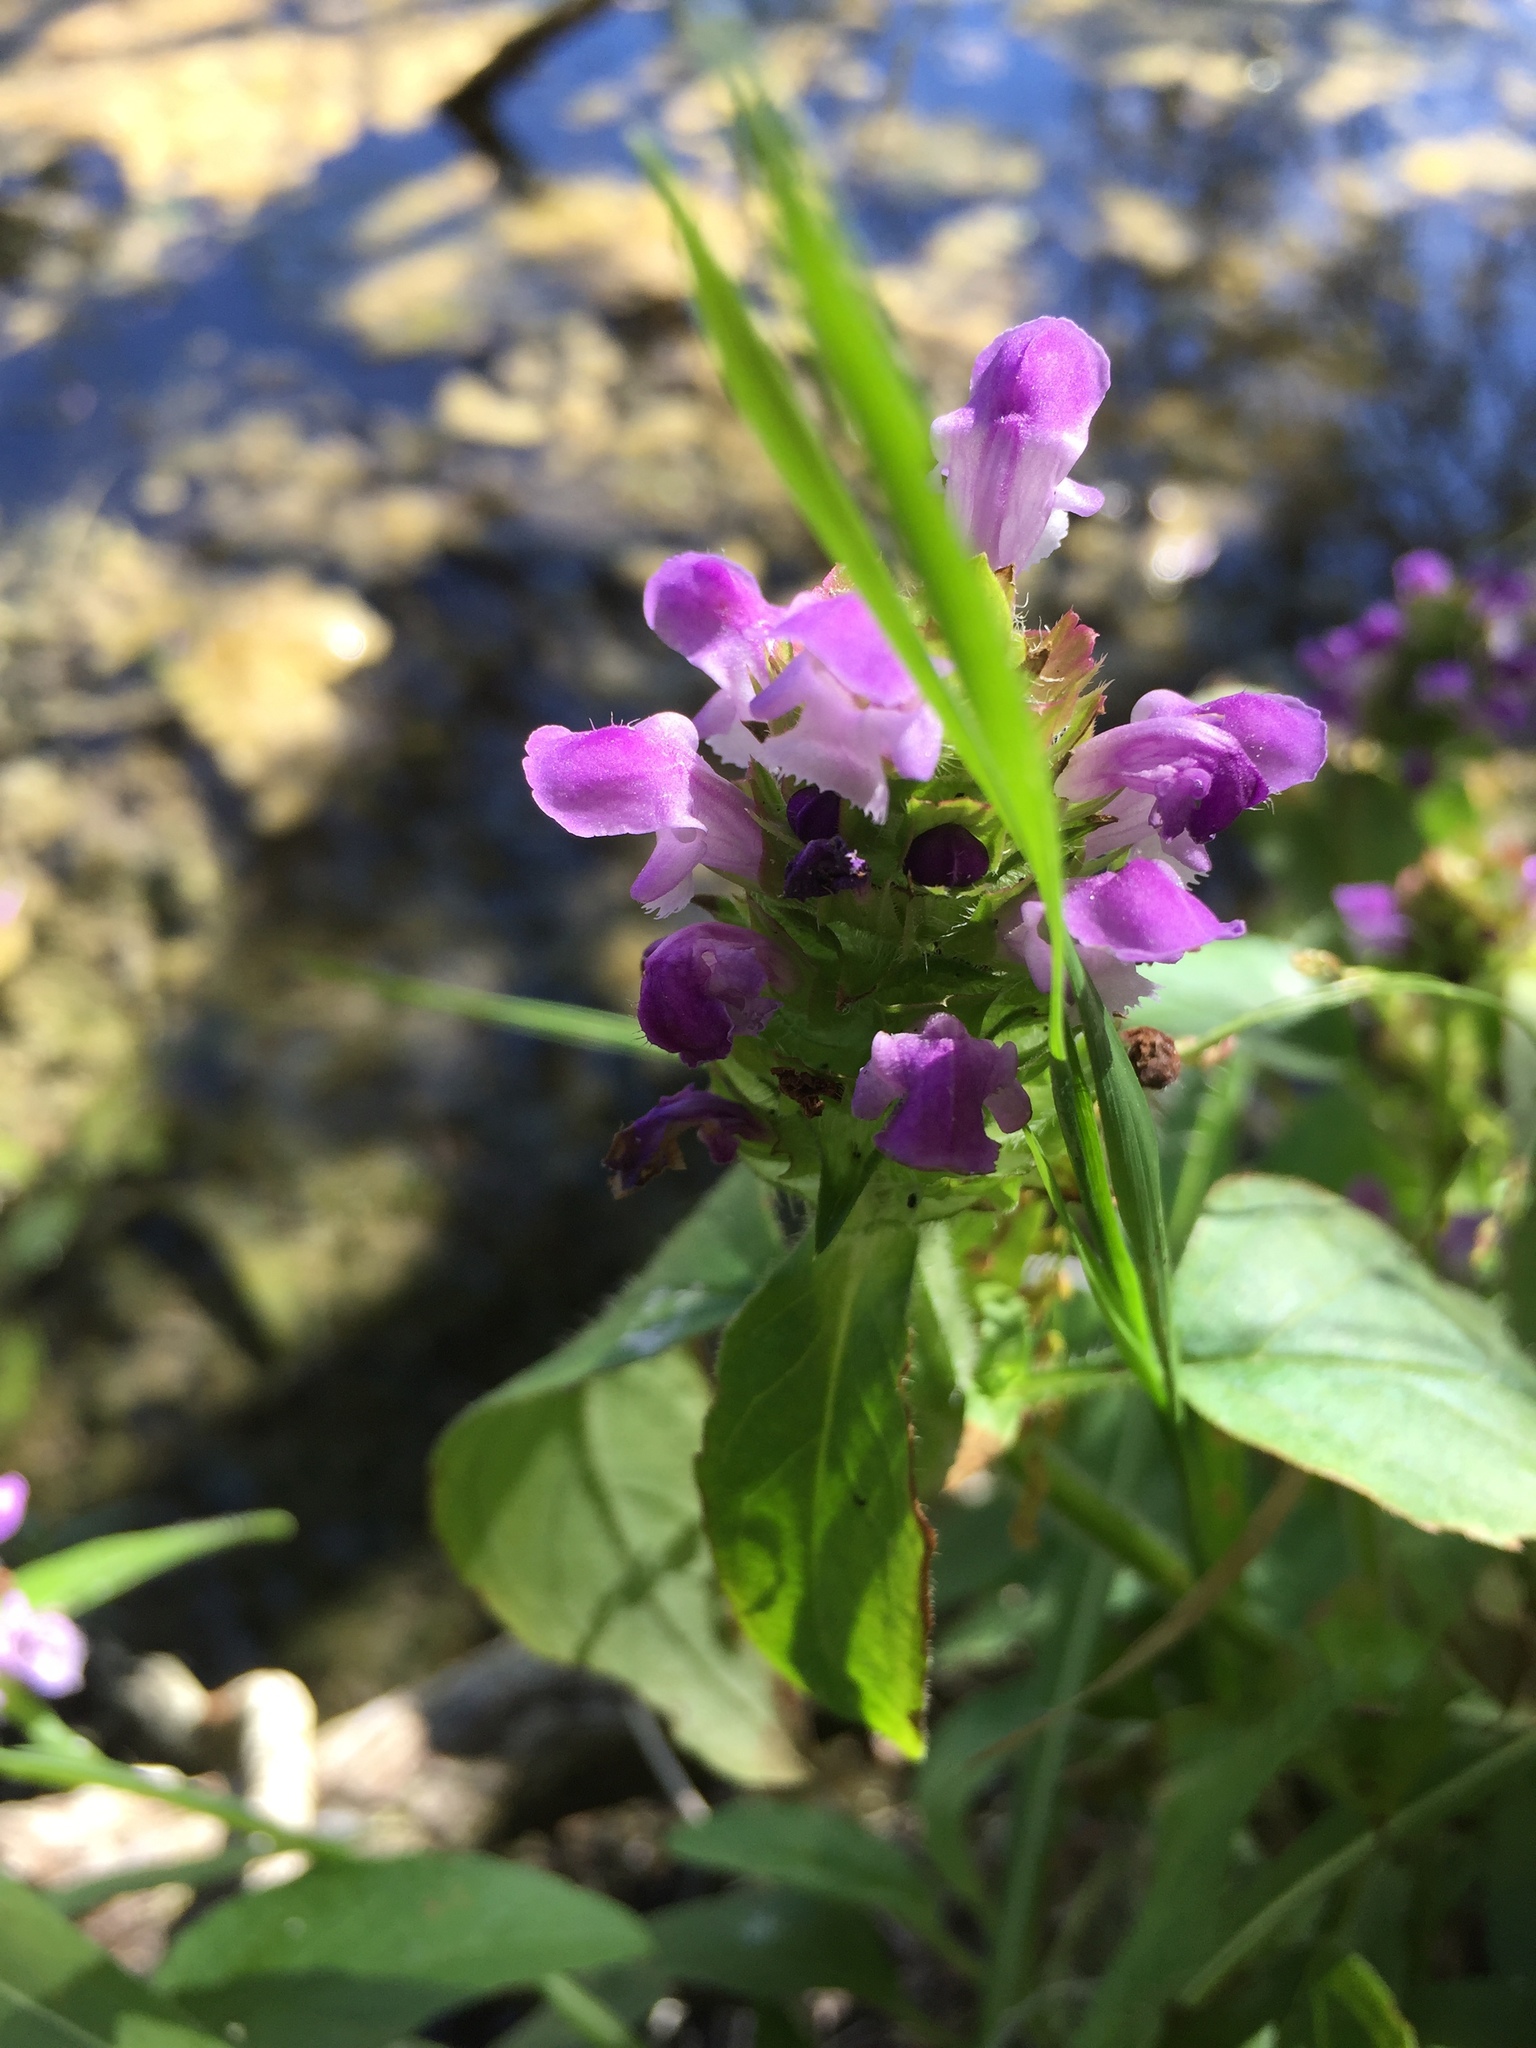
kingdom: Plantae
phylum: Tracheophyta
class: Magnoliopsida
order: Lamiales
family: Lamiaceae
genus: Prunella
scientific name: Prunella vulgaris
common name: Heal-all
